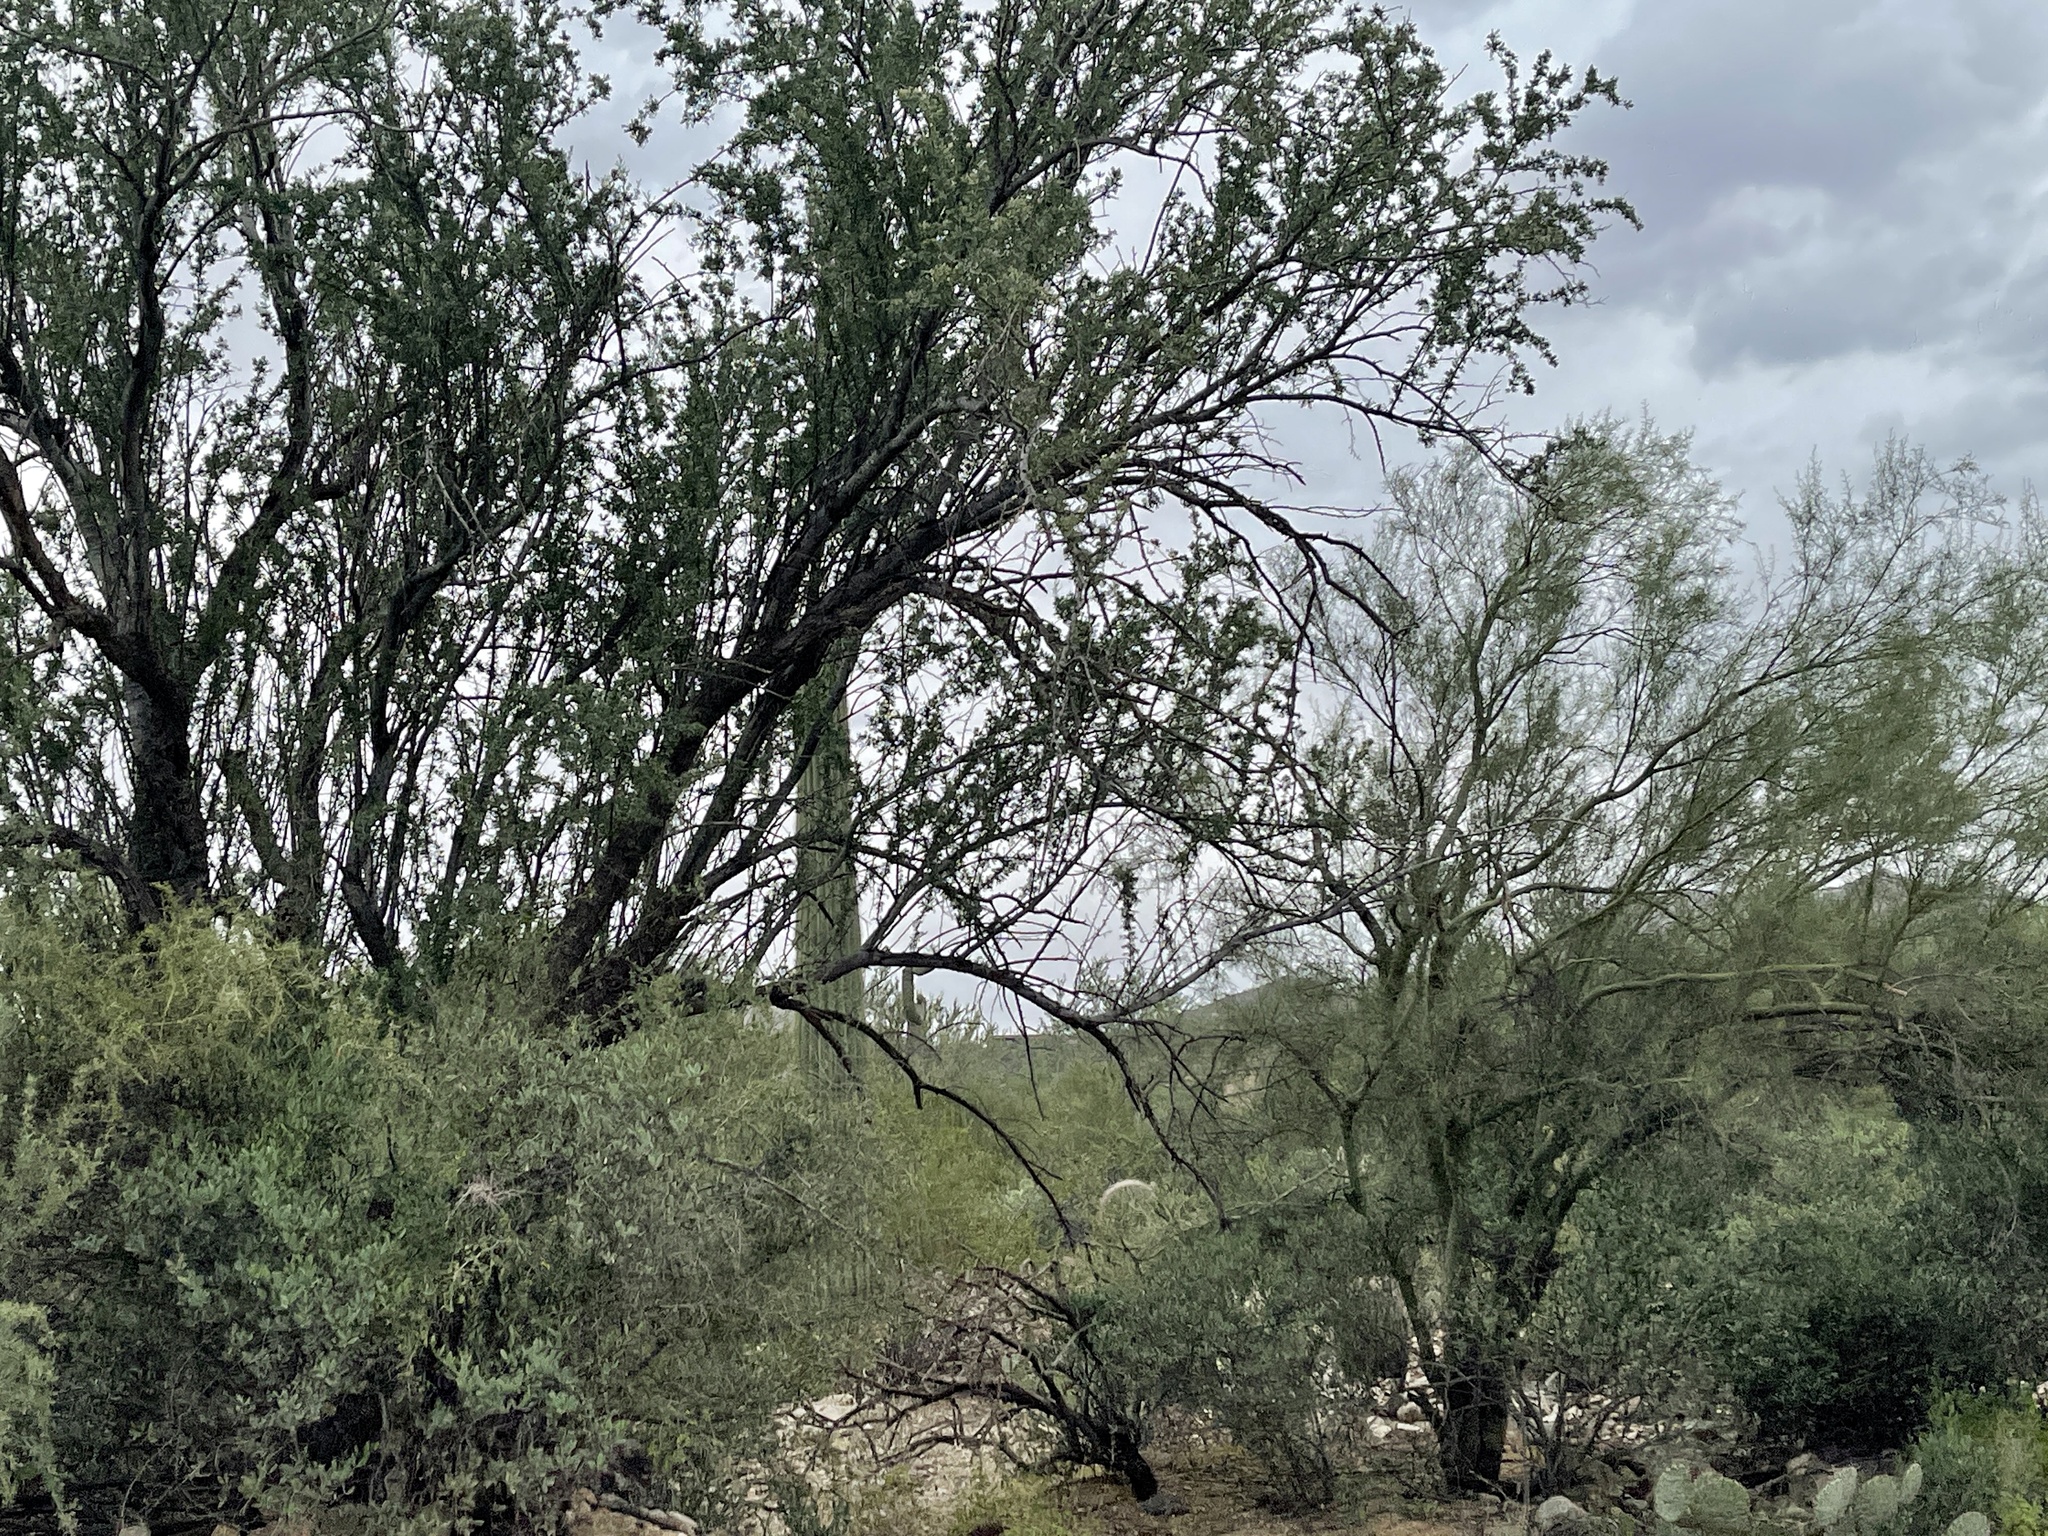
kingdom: Plantae
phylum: Tracheophyta
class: Magnoliopsida
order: Fabales
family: Fabaceae
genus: Olneya
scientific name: Olneya tesota
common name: Desert ironwood
